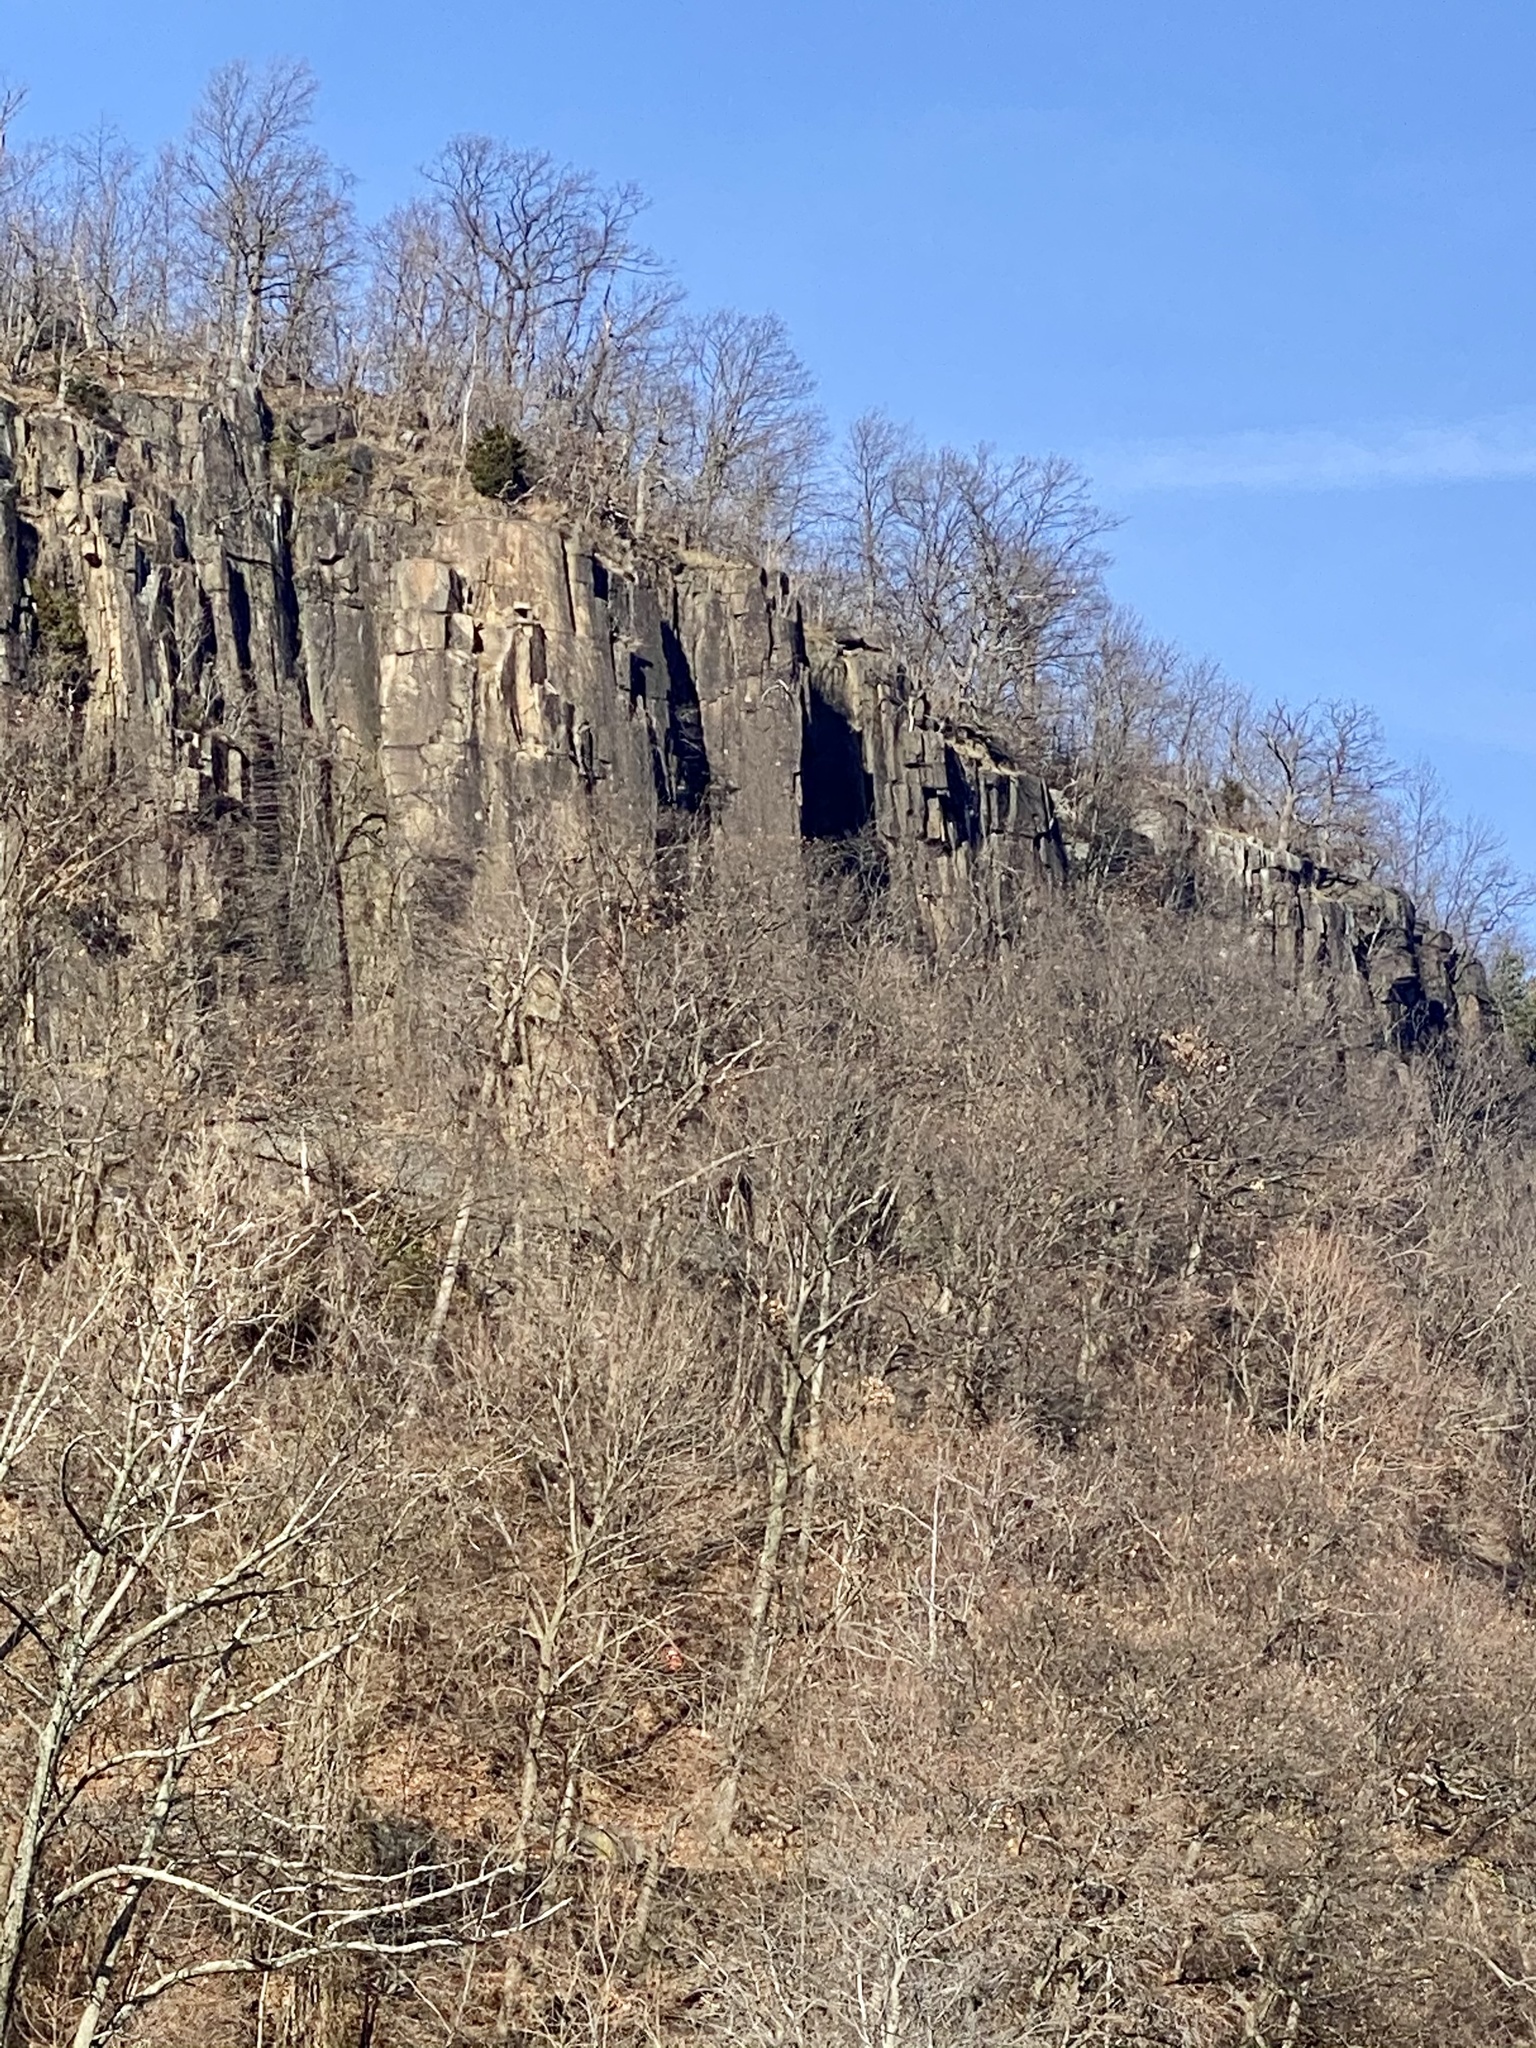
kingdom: Plantae
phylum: Tracheophyta
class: Liliopsida
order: Asparagales
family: Amaryllidaceae
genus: Allium
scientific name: Allium vineale
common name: Crow garlic
